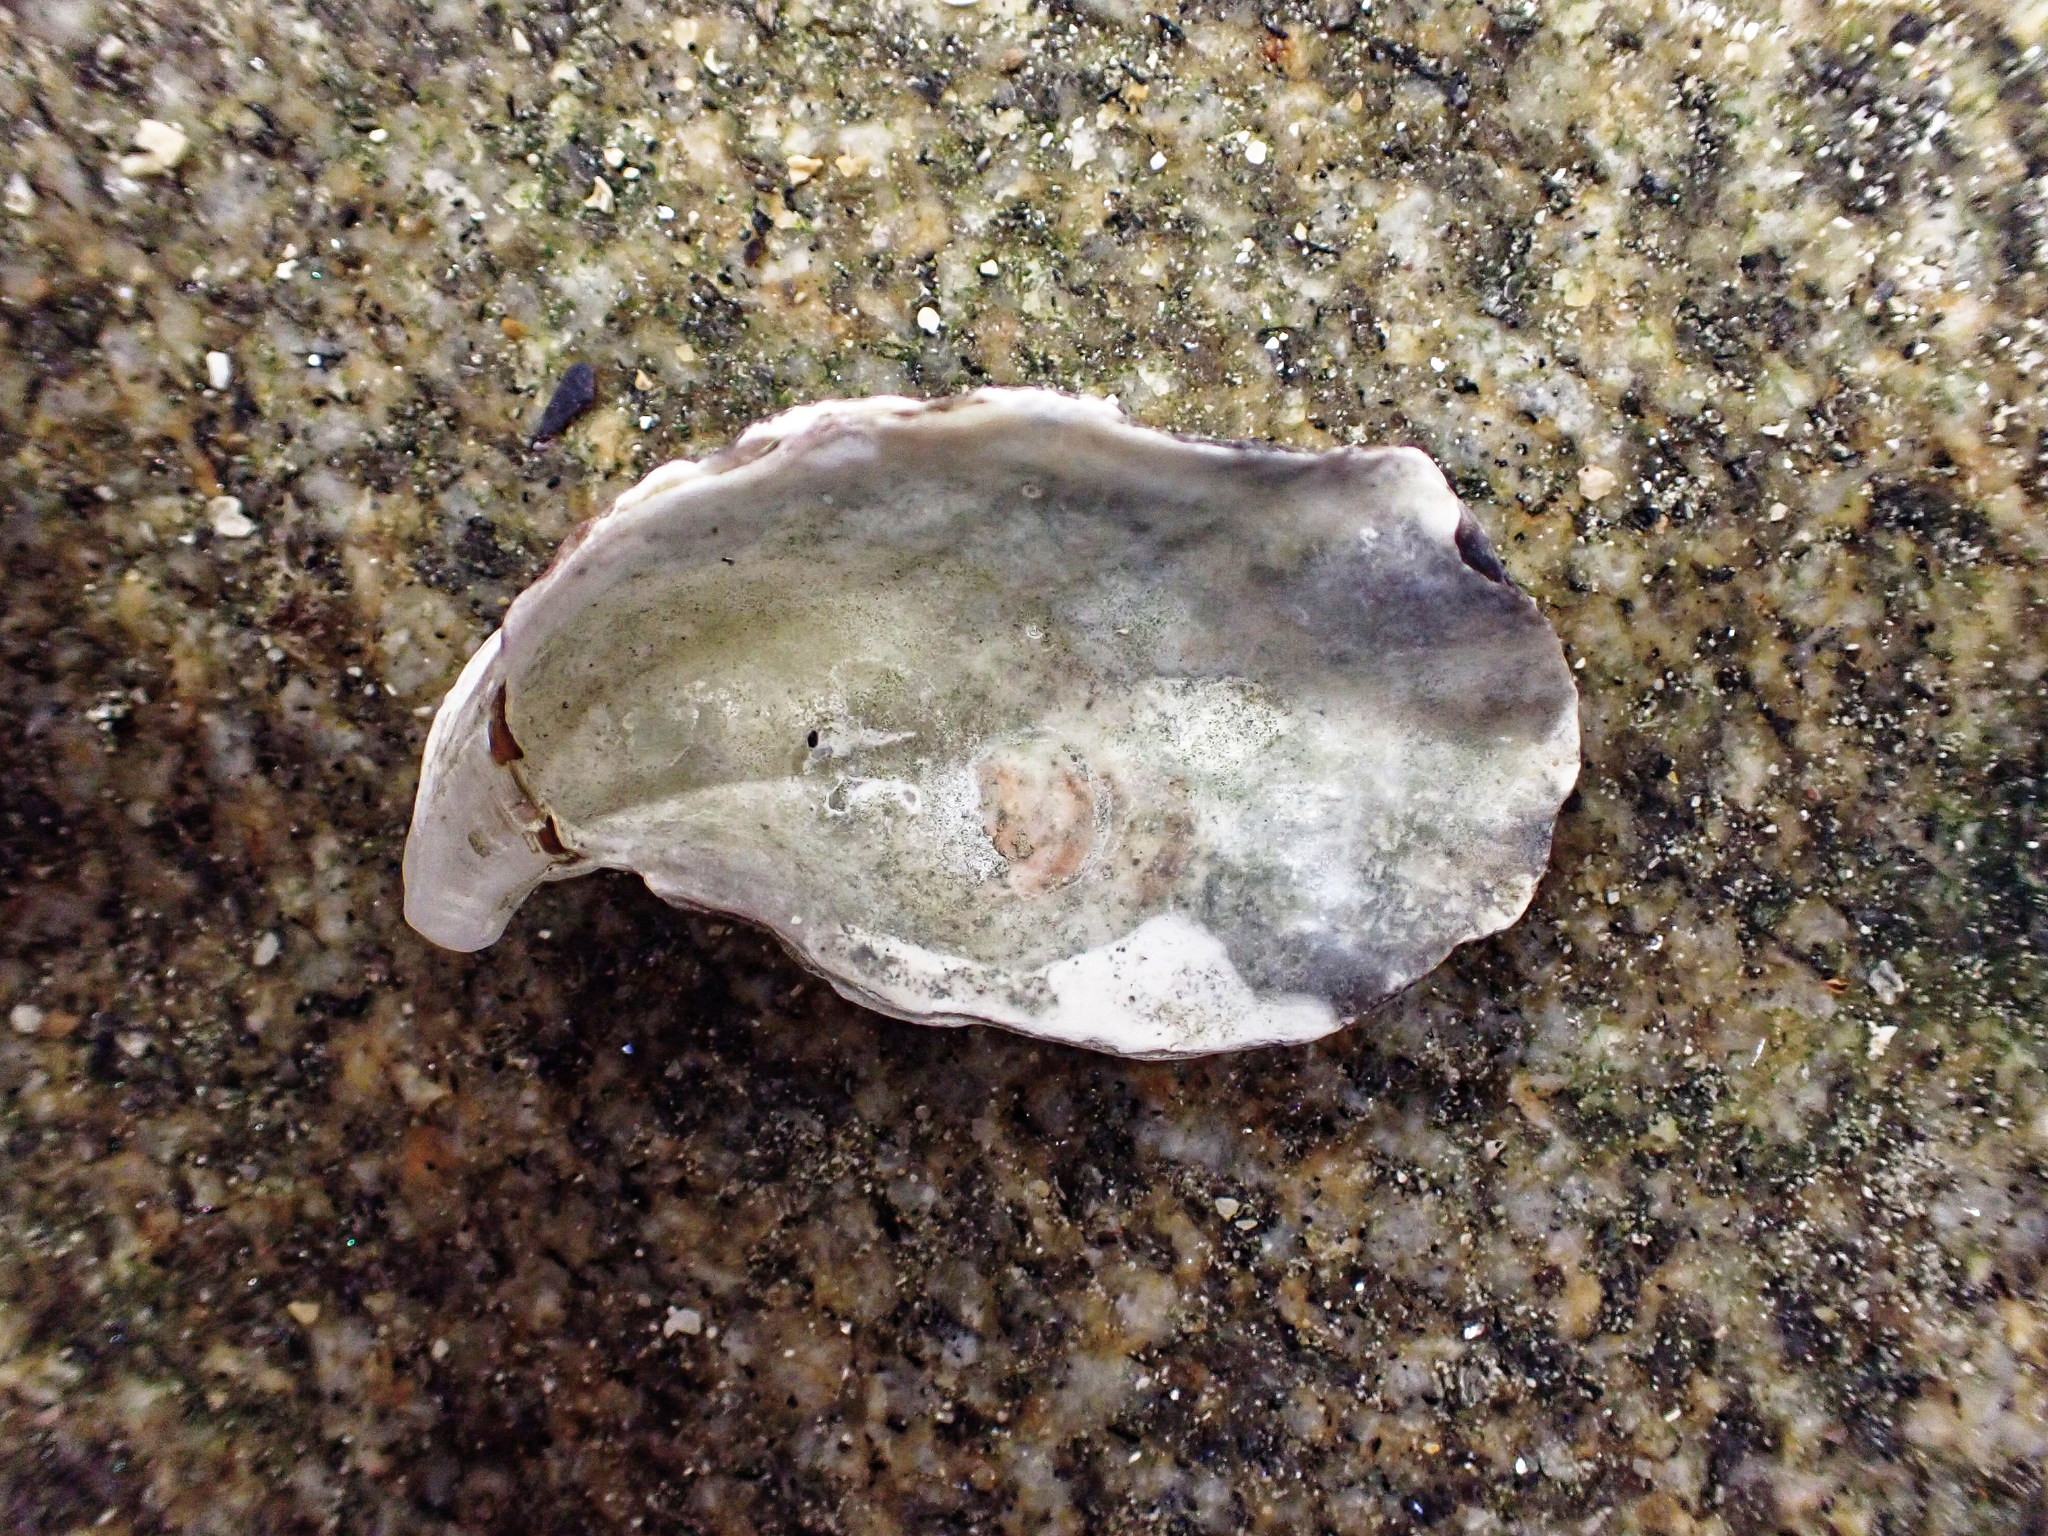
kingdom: Animalia
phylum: Mollusca
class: Bivalvia
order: Ostreida
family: Ostreidae
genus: Magallana
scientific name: Magallana gigas
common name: Pacific oyster
